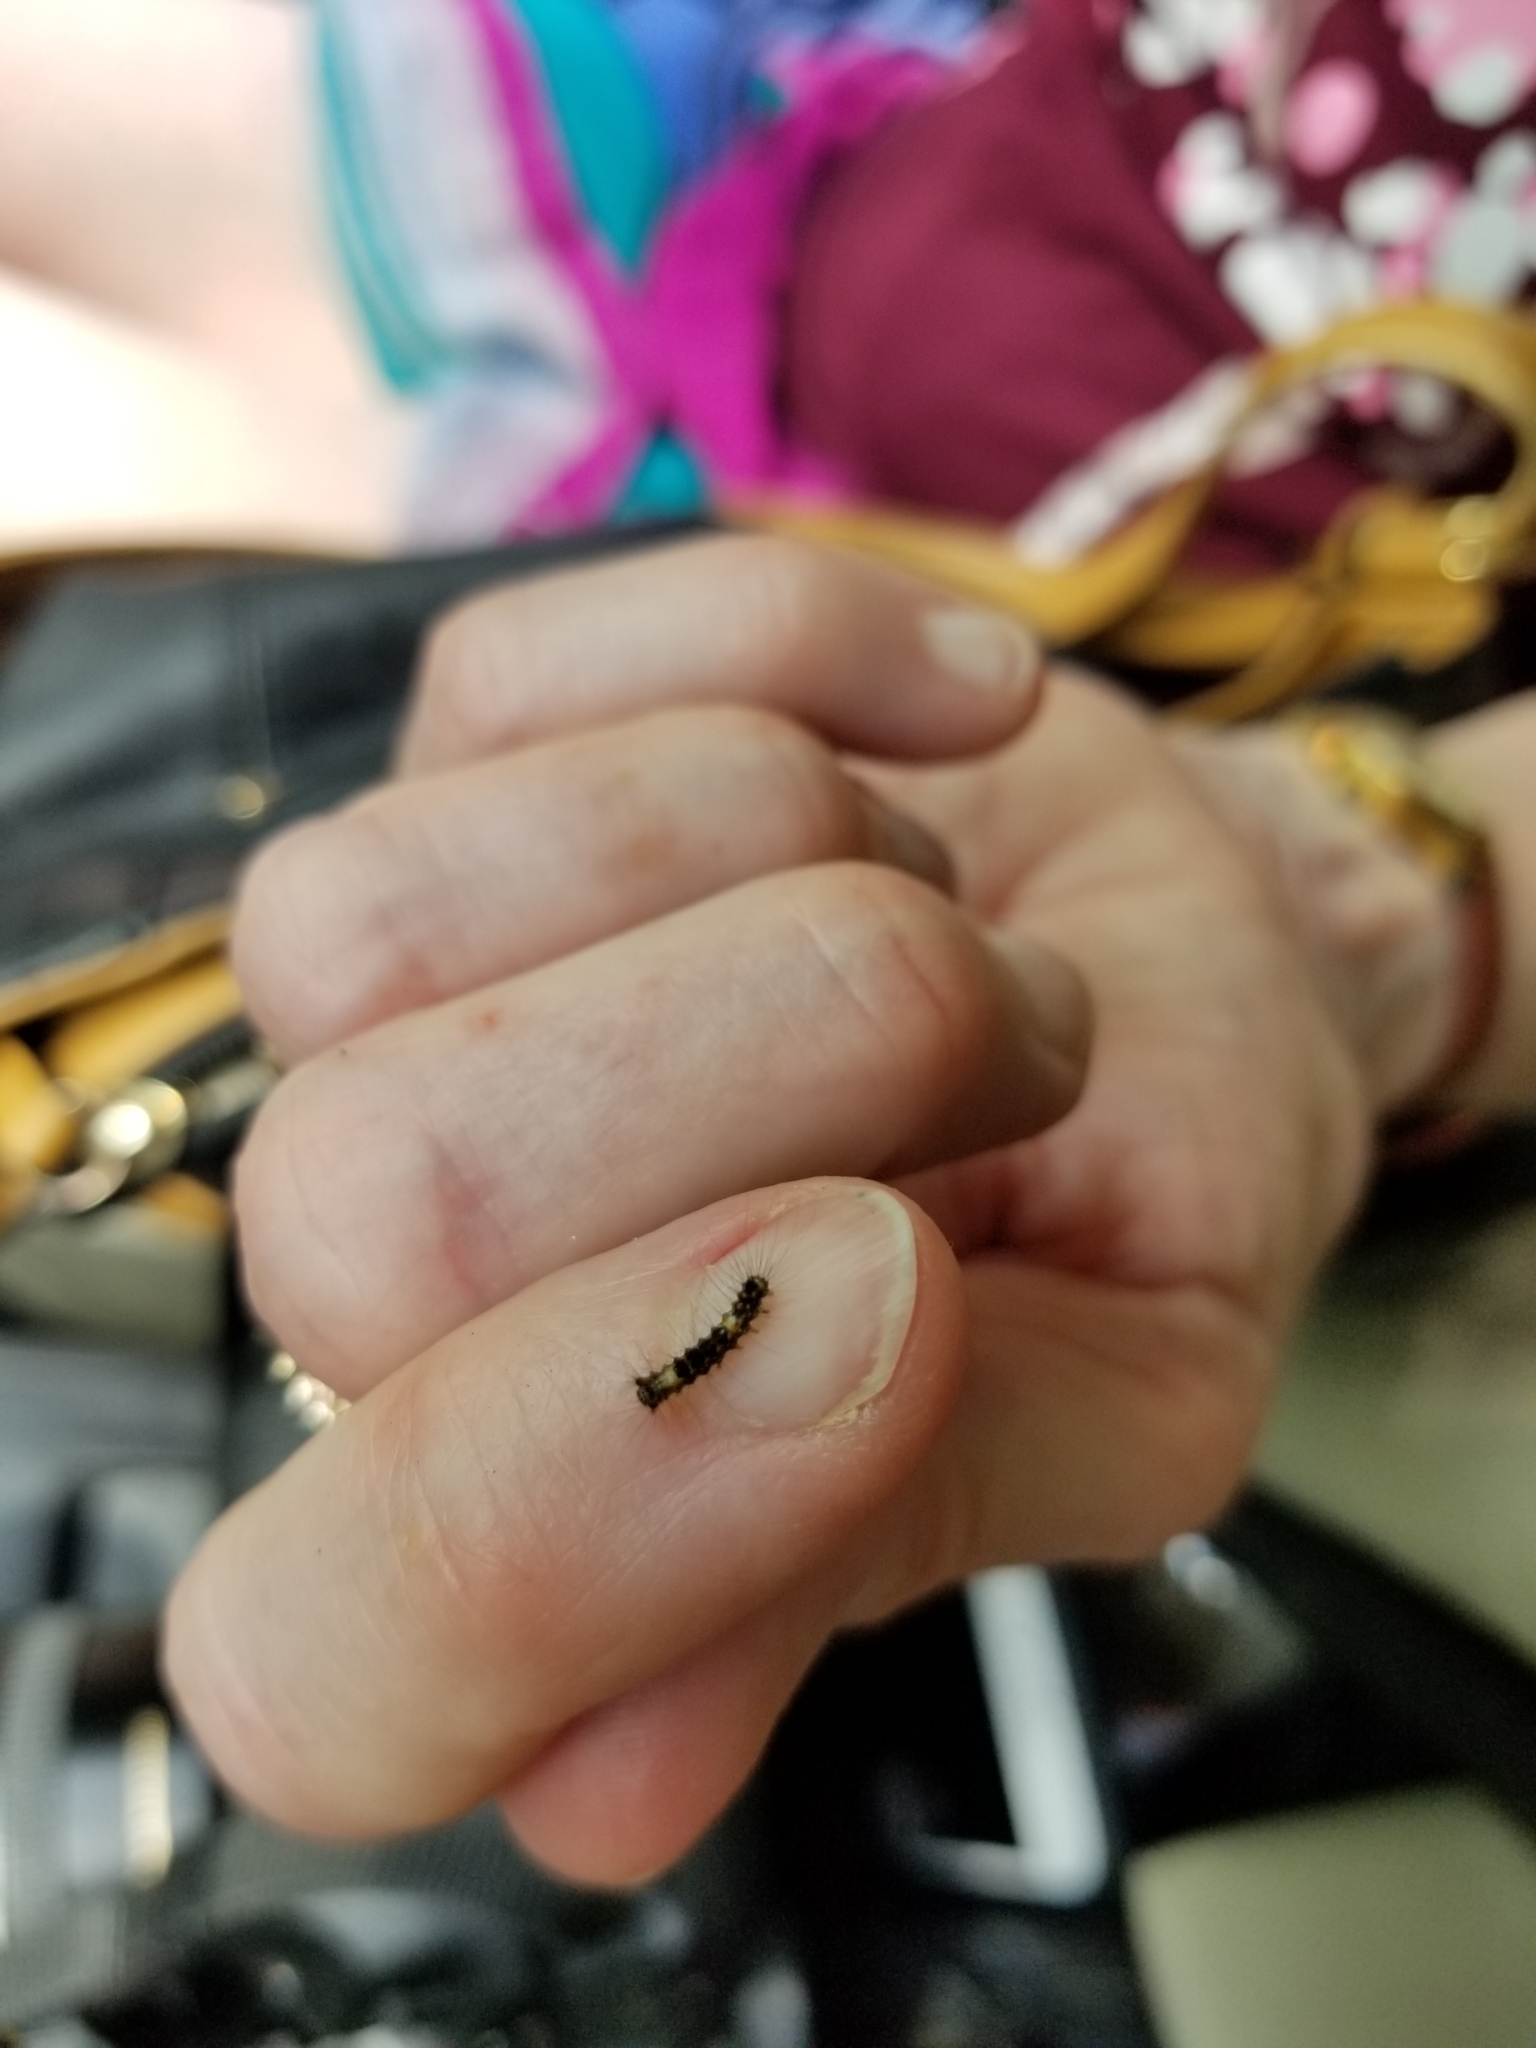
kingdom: Animalia
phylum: Arthropoda
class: Insecta
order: Lepidoptera
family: Erebidae
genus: Lymantria
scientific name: Lymantria dispar
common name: Gypsy moth
